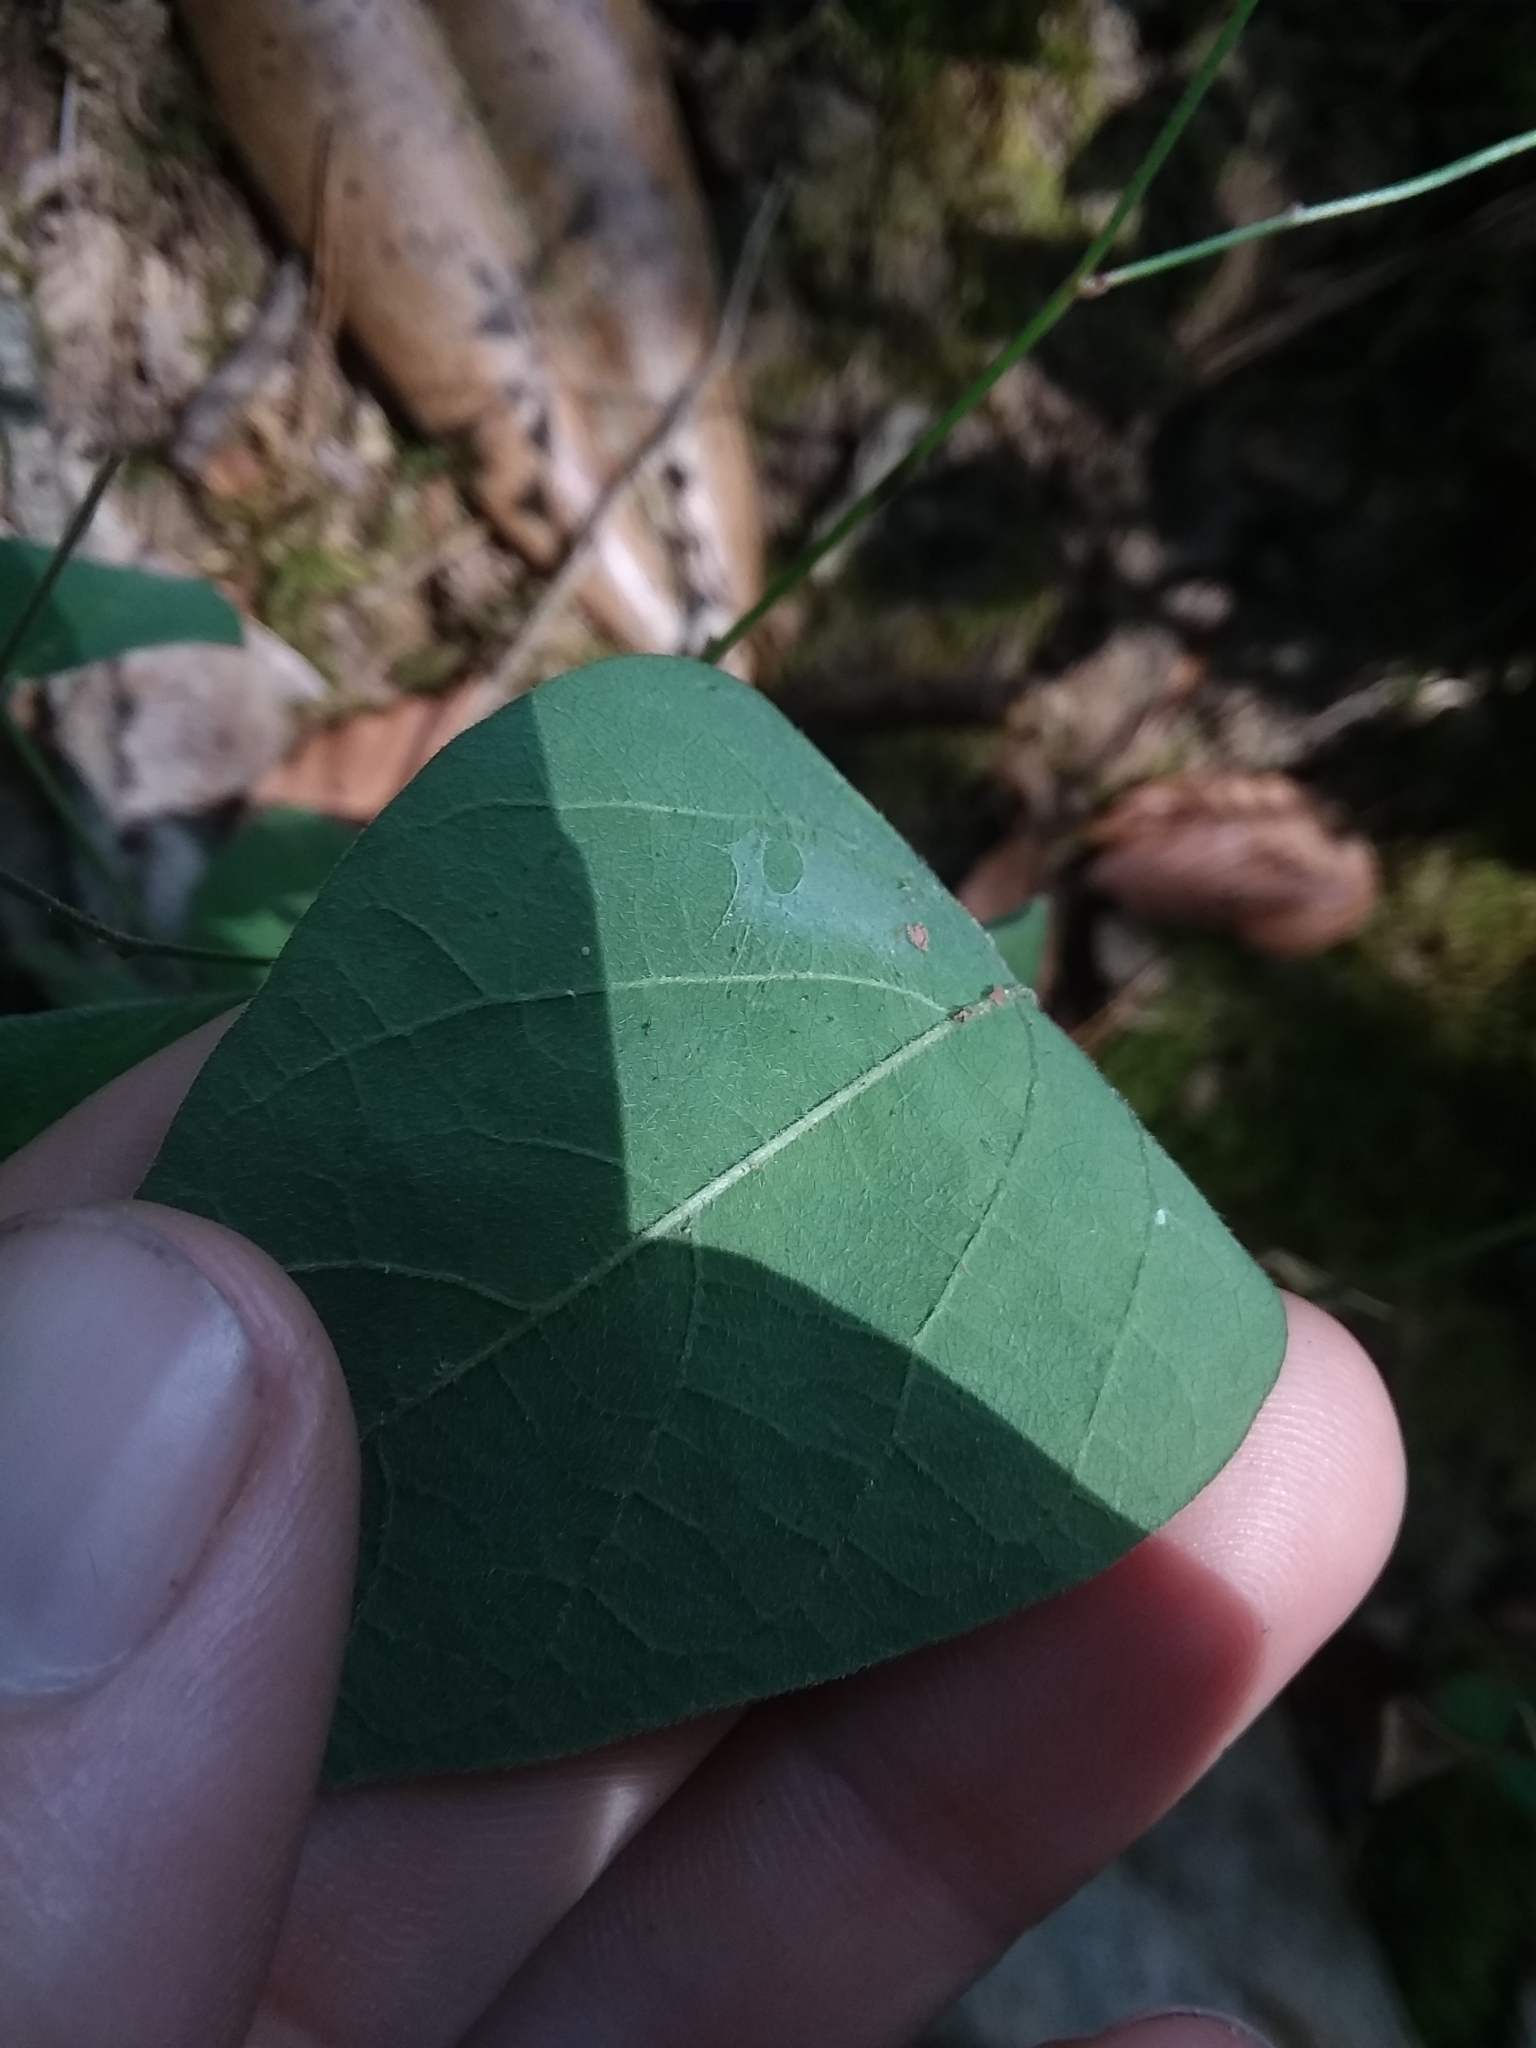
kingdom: Plantae
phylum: Tracheophyta
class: Magnoliopsida
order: Fabales
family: Fabaceae
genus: Desmodium
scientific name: Desmodium perplexum
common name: Perplexed tick trefoil
